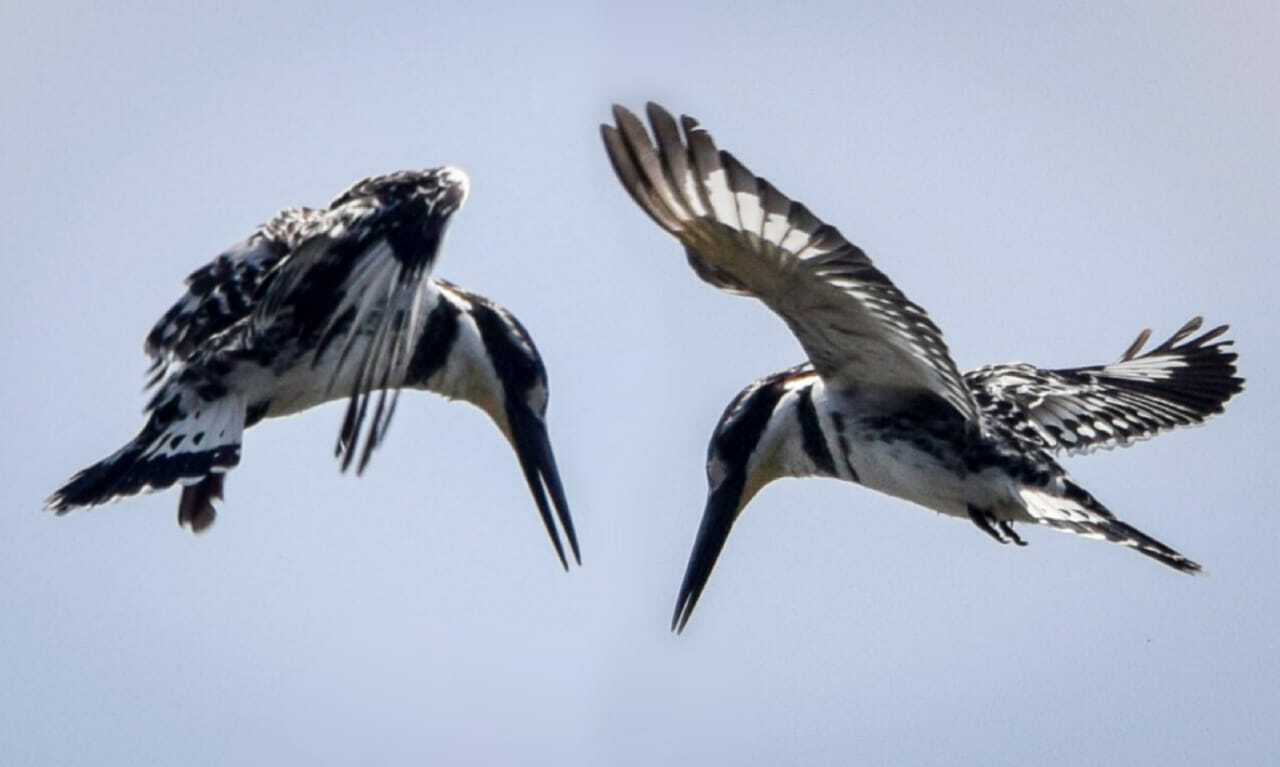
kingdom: Animalia
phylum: Chordata
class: Aves
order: Coraciiformes
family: Alcedinidae
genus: Ceryle
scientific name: Ceryle rudis
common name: Pied kingfisher
